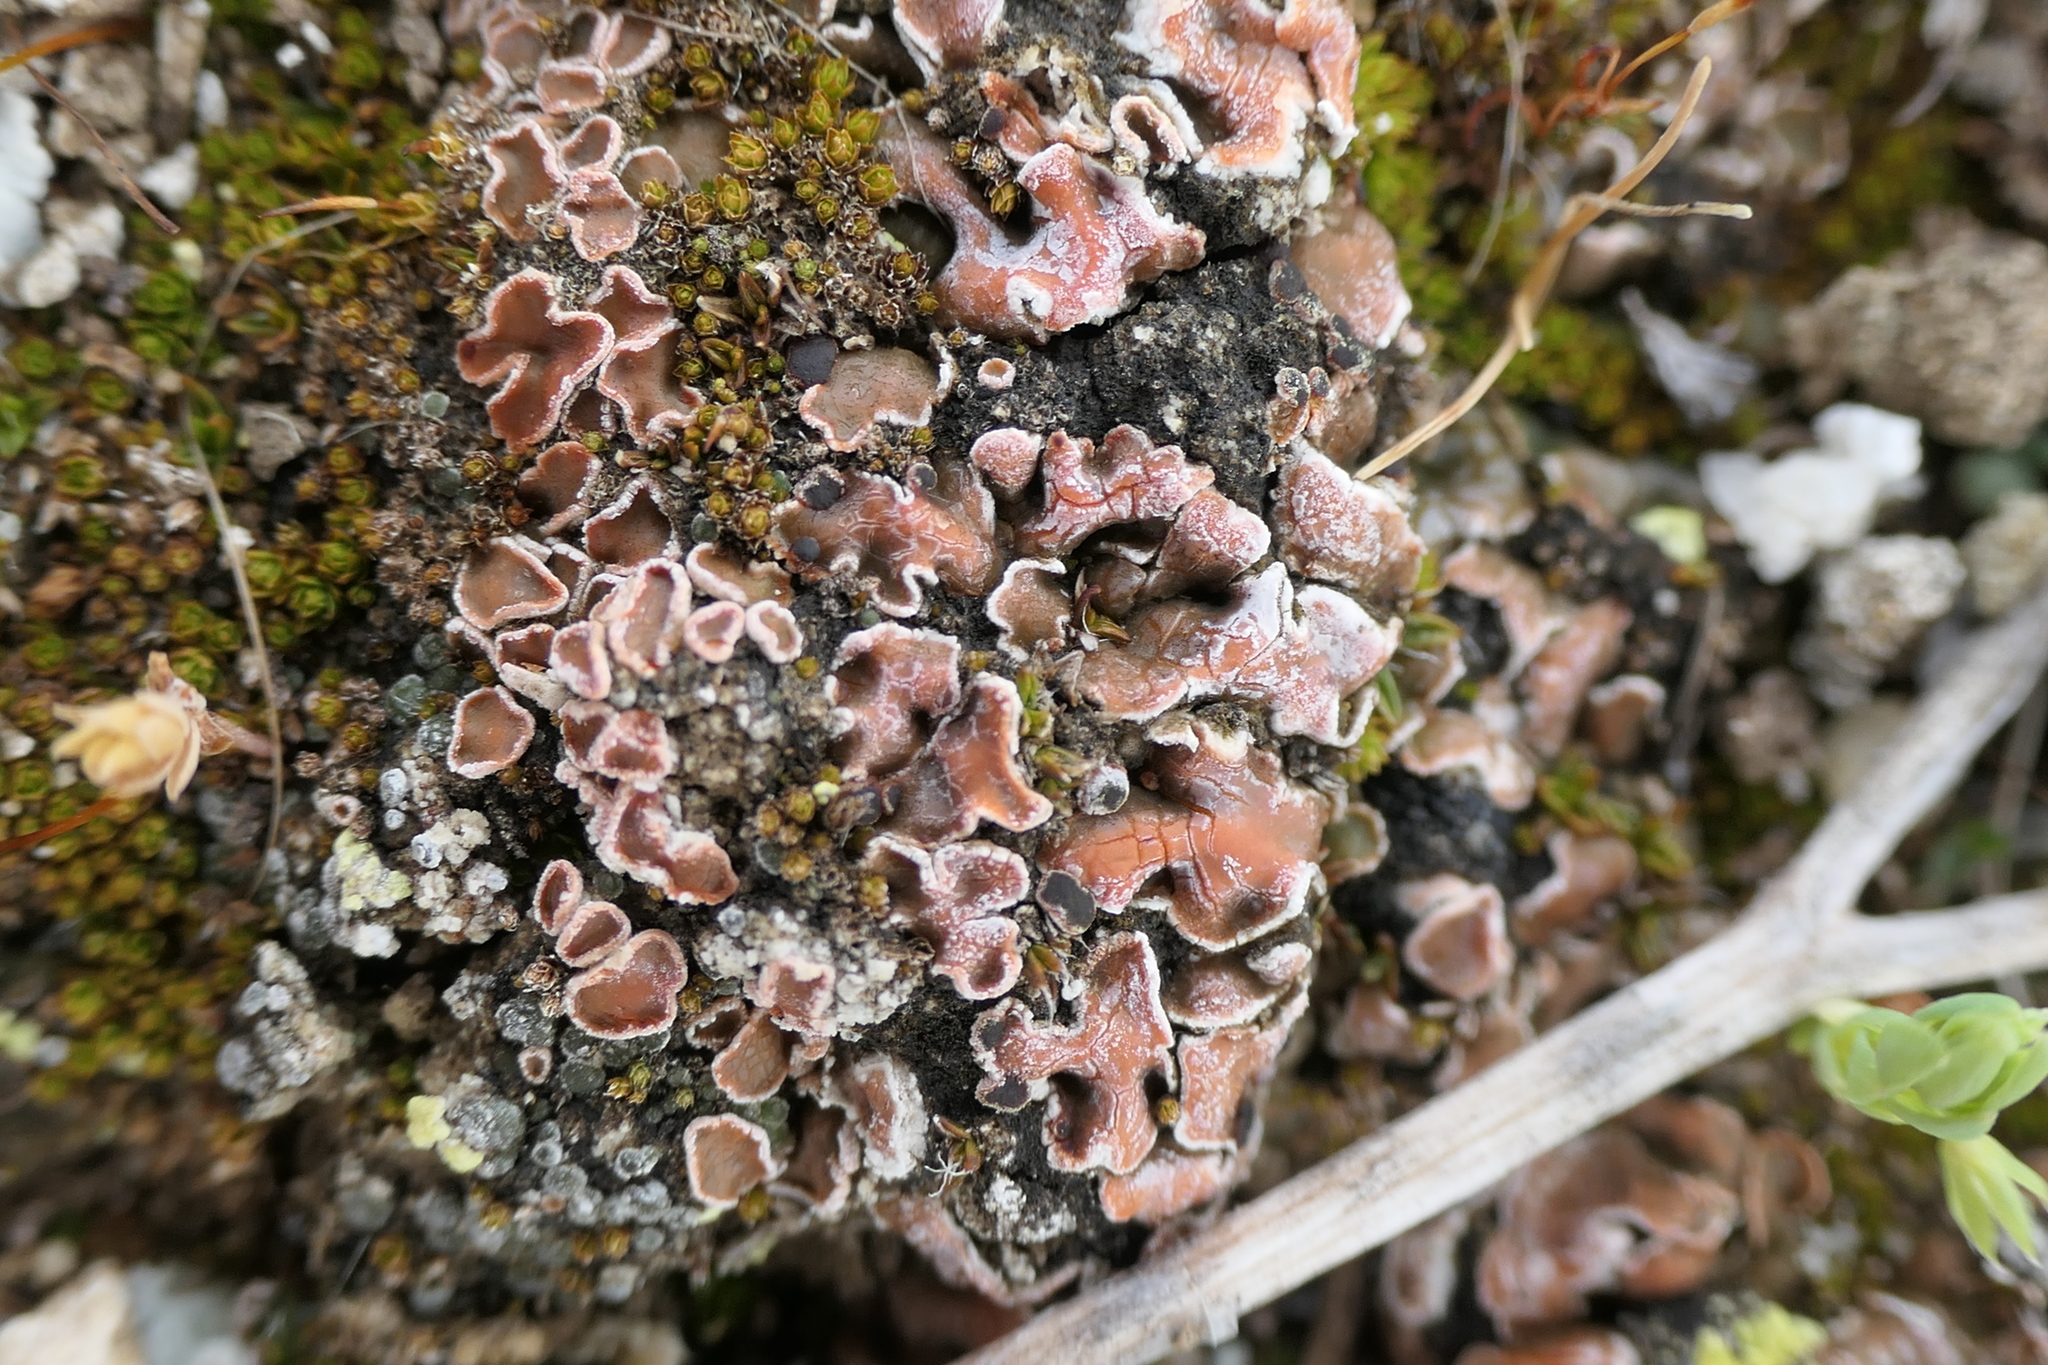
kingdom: Fungi
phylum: Ascomycota
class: Lecanoromycetes
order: Lecanorales
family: Psoraceae
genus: Psora
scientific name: Psora decipiens
